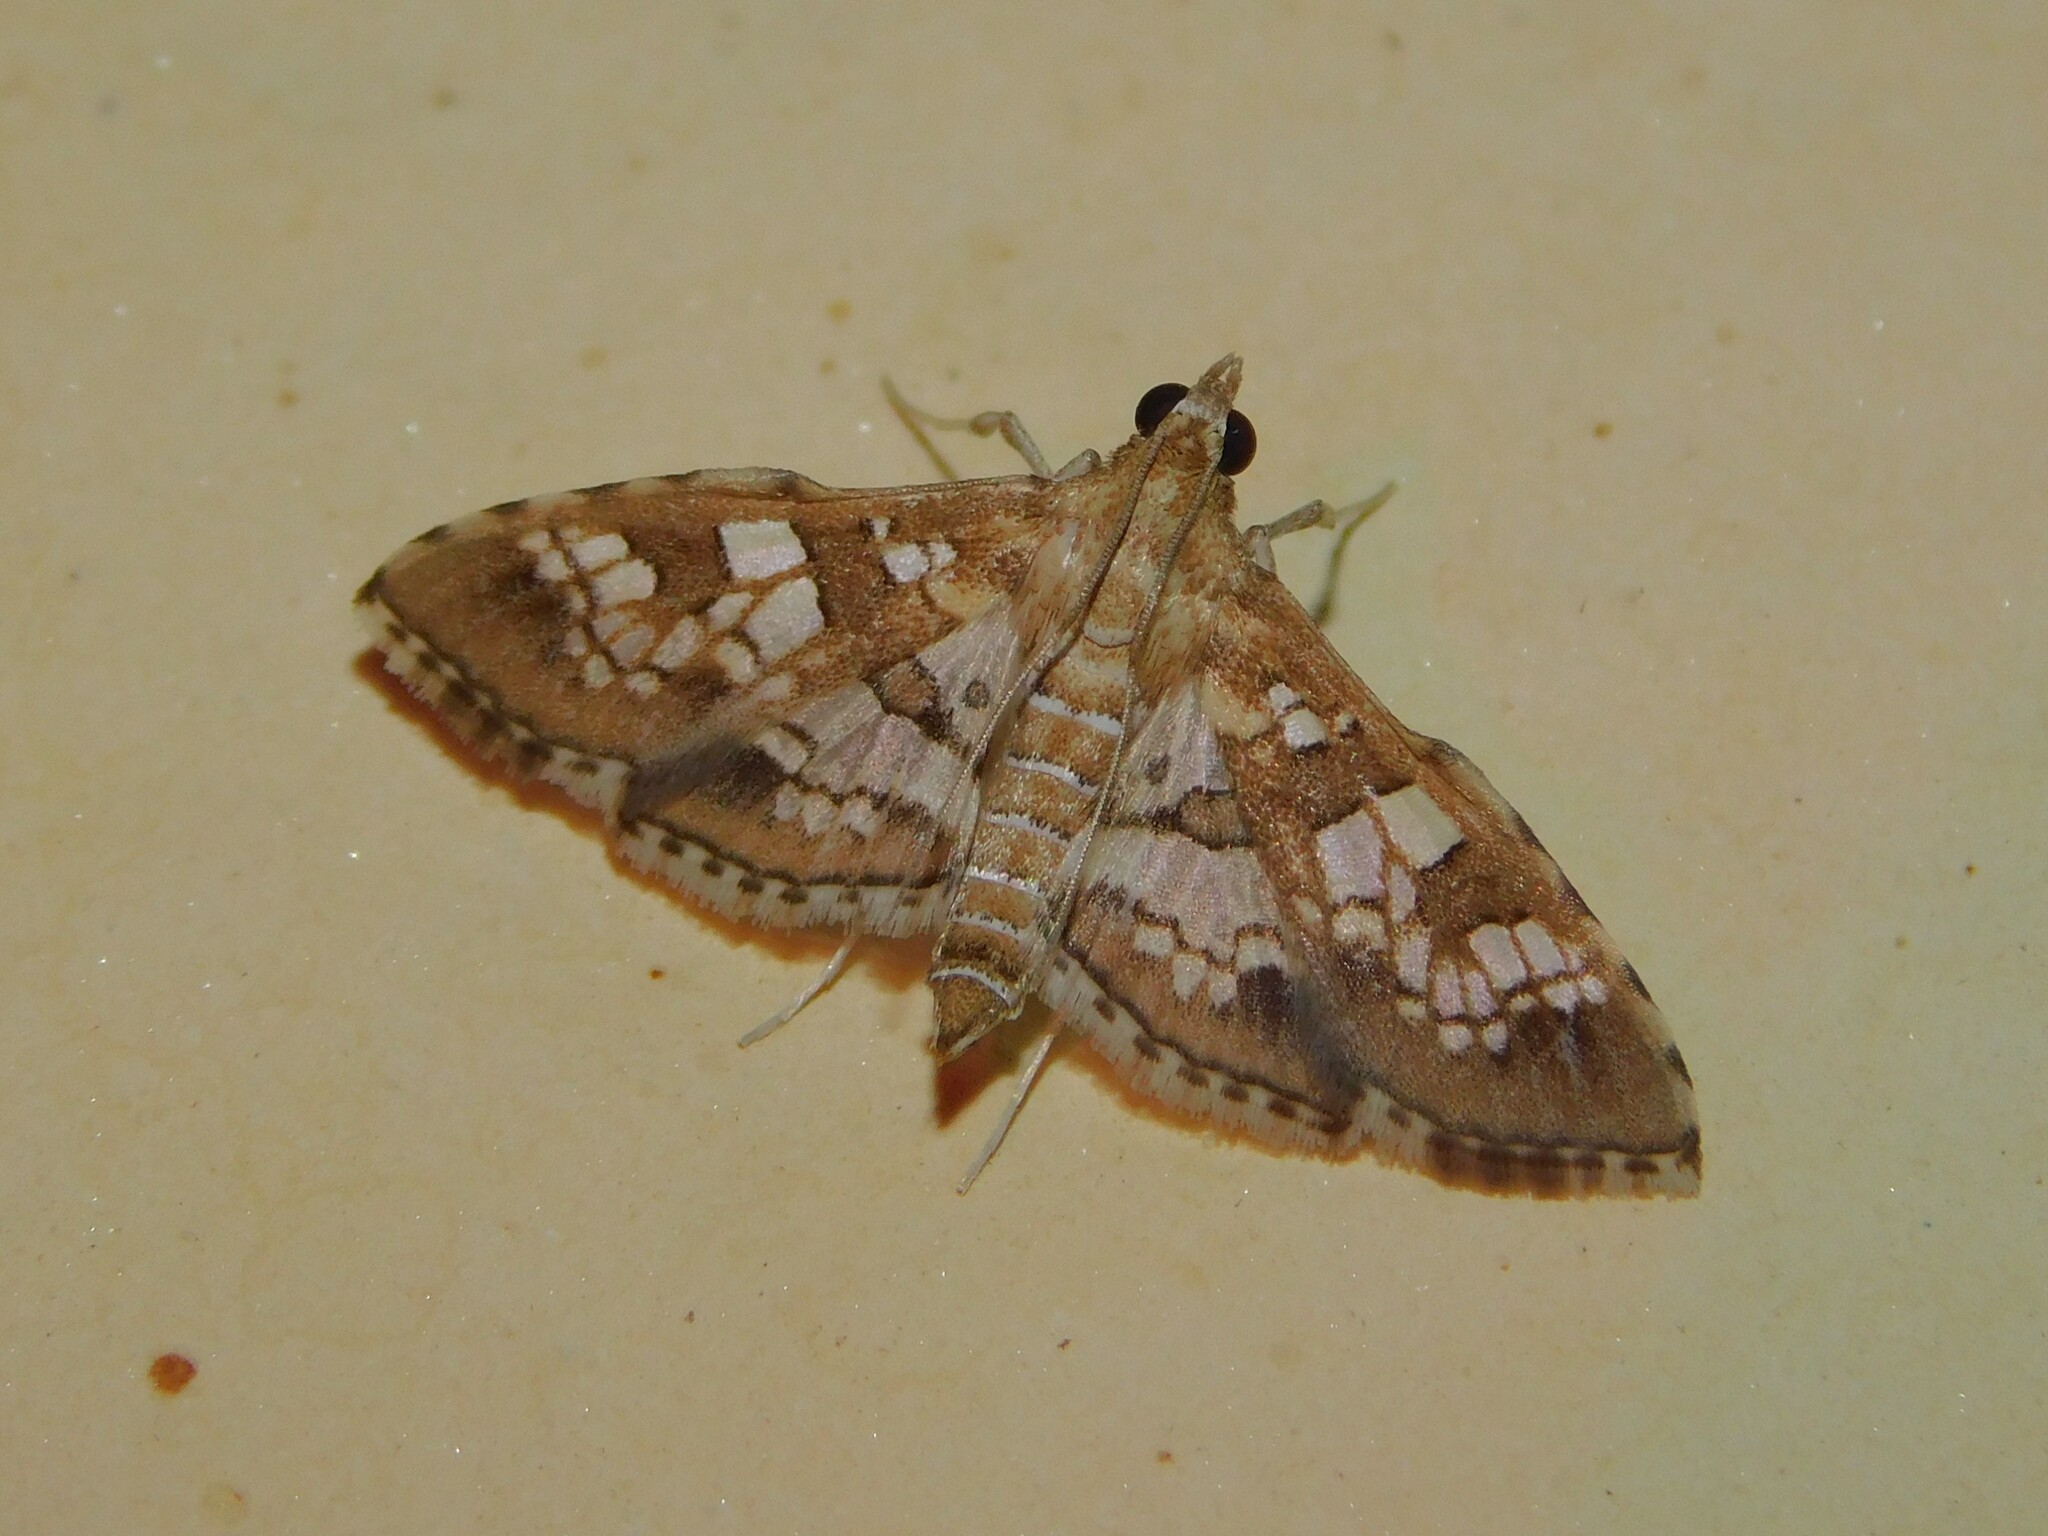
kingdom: Animalia
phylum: Arthropoda
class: Insecta
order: Lepidoptera
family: Crambidae
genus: Sameodes
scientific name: Sameodes cancellalis
